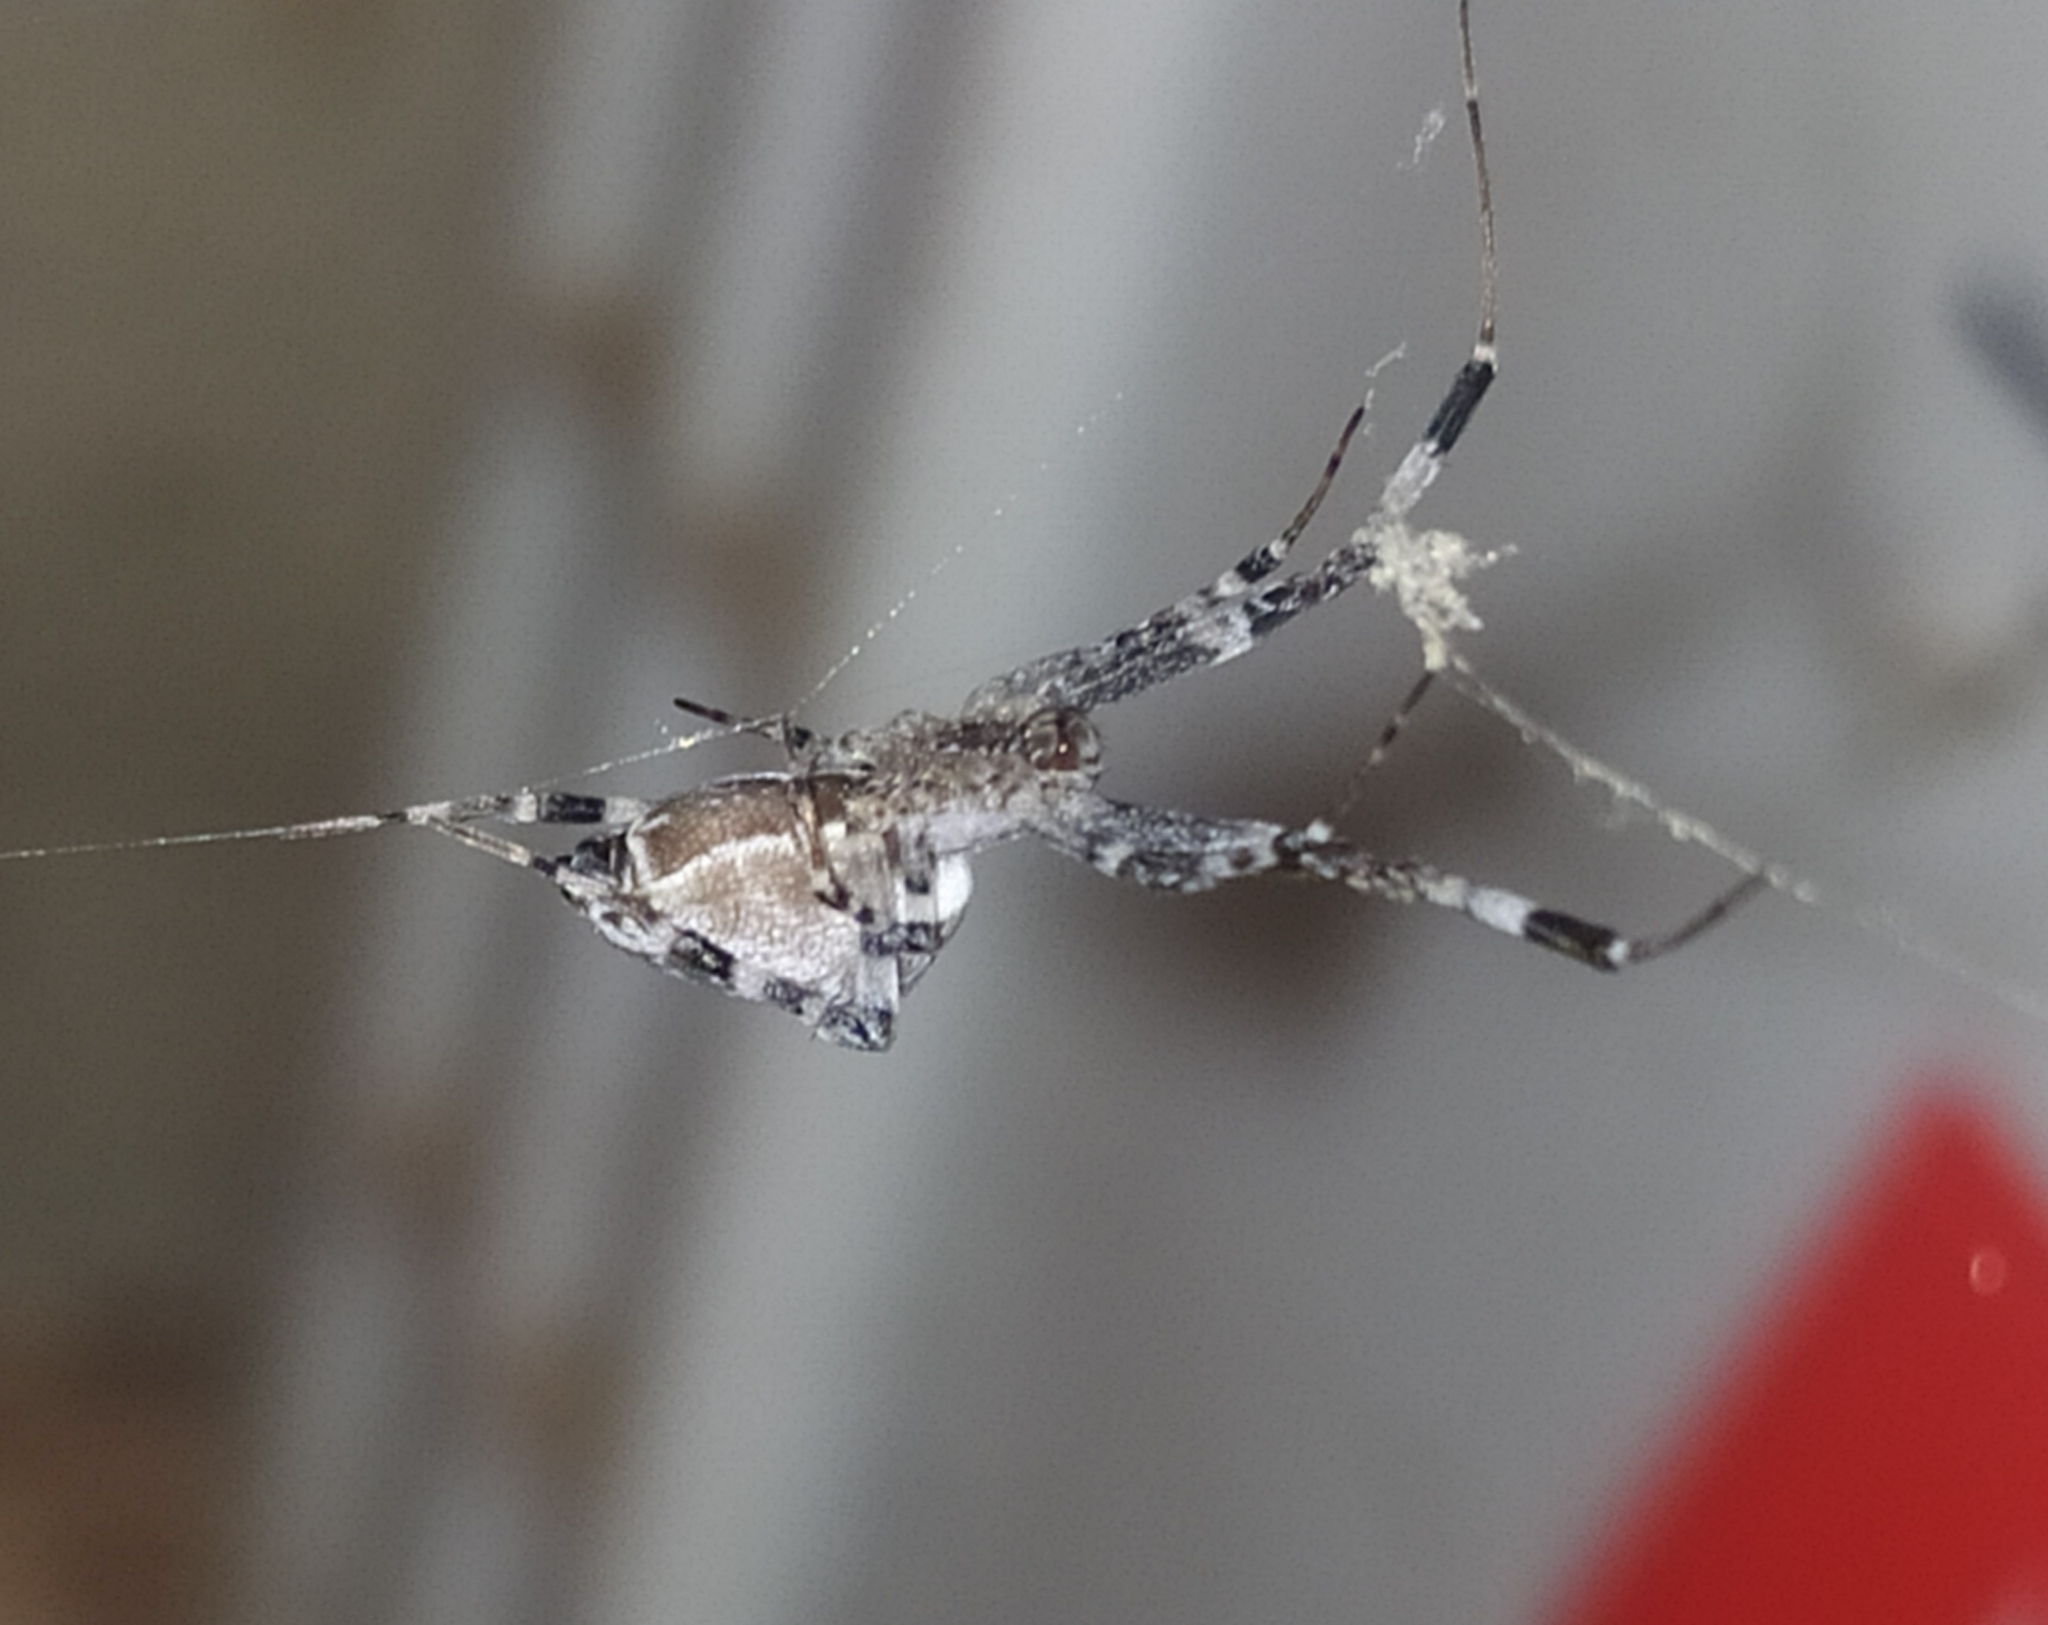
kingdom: Animalia
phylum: Arthropoda
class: Arachnida
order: Araneae
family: Uloboridae
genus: Zosis
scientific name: Zosis geniculata
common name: Hackled orb weavers
